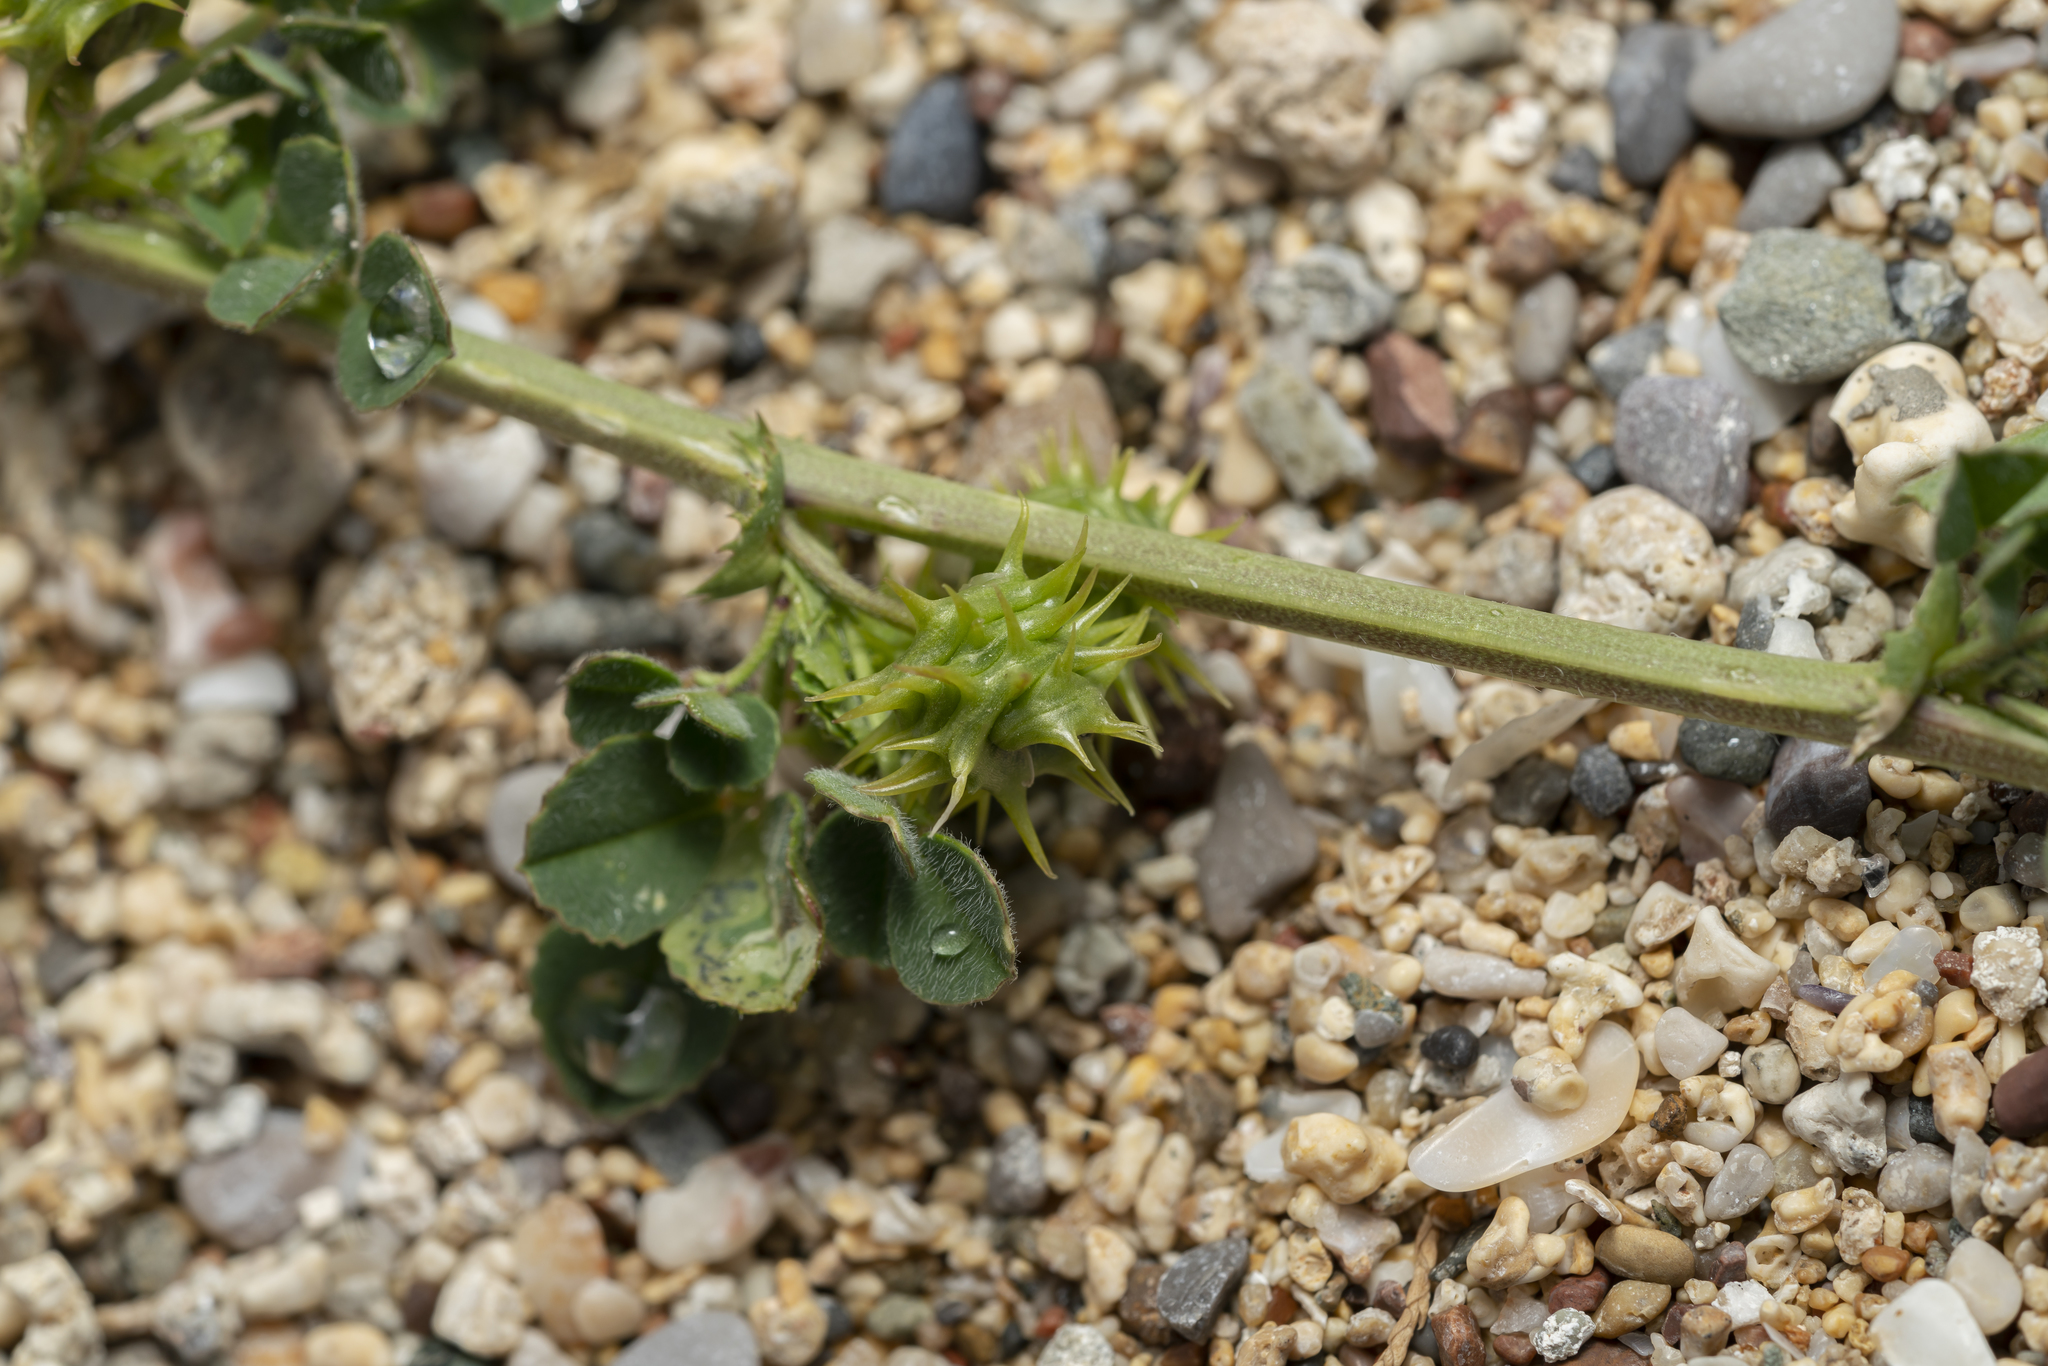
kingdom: Plantae
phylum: Tracheophyta
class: Magnoliopsida
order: Fabales
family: Fabaceae
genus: Medicago
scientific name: Medicago littoralis
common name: Shore medick
